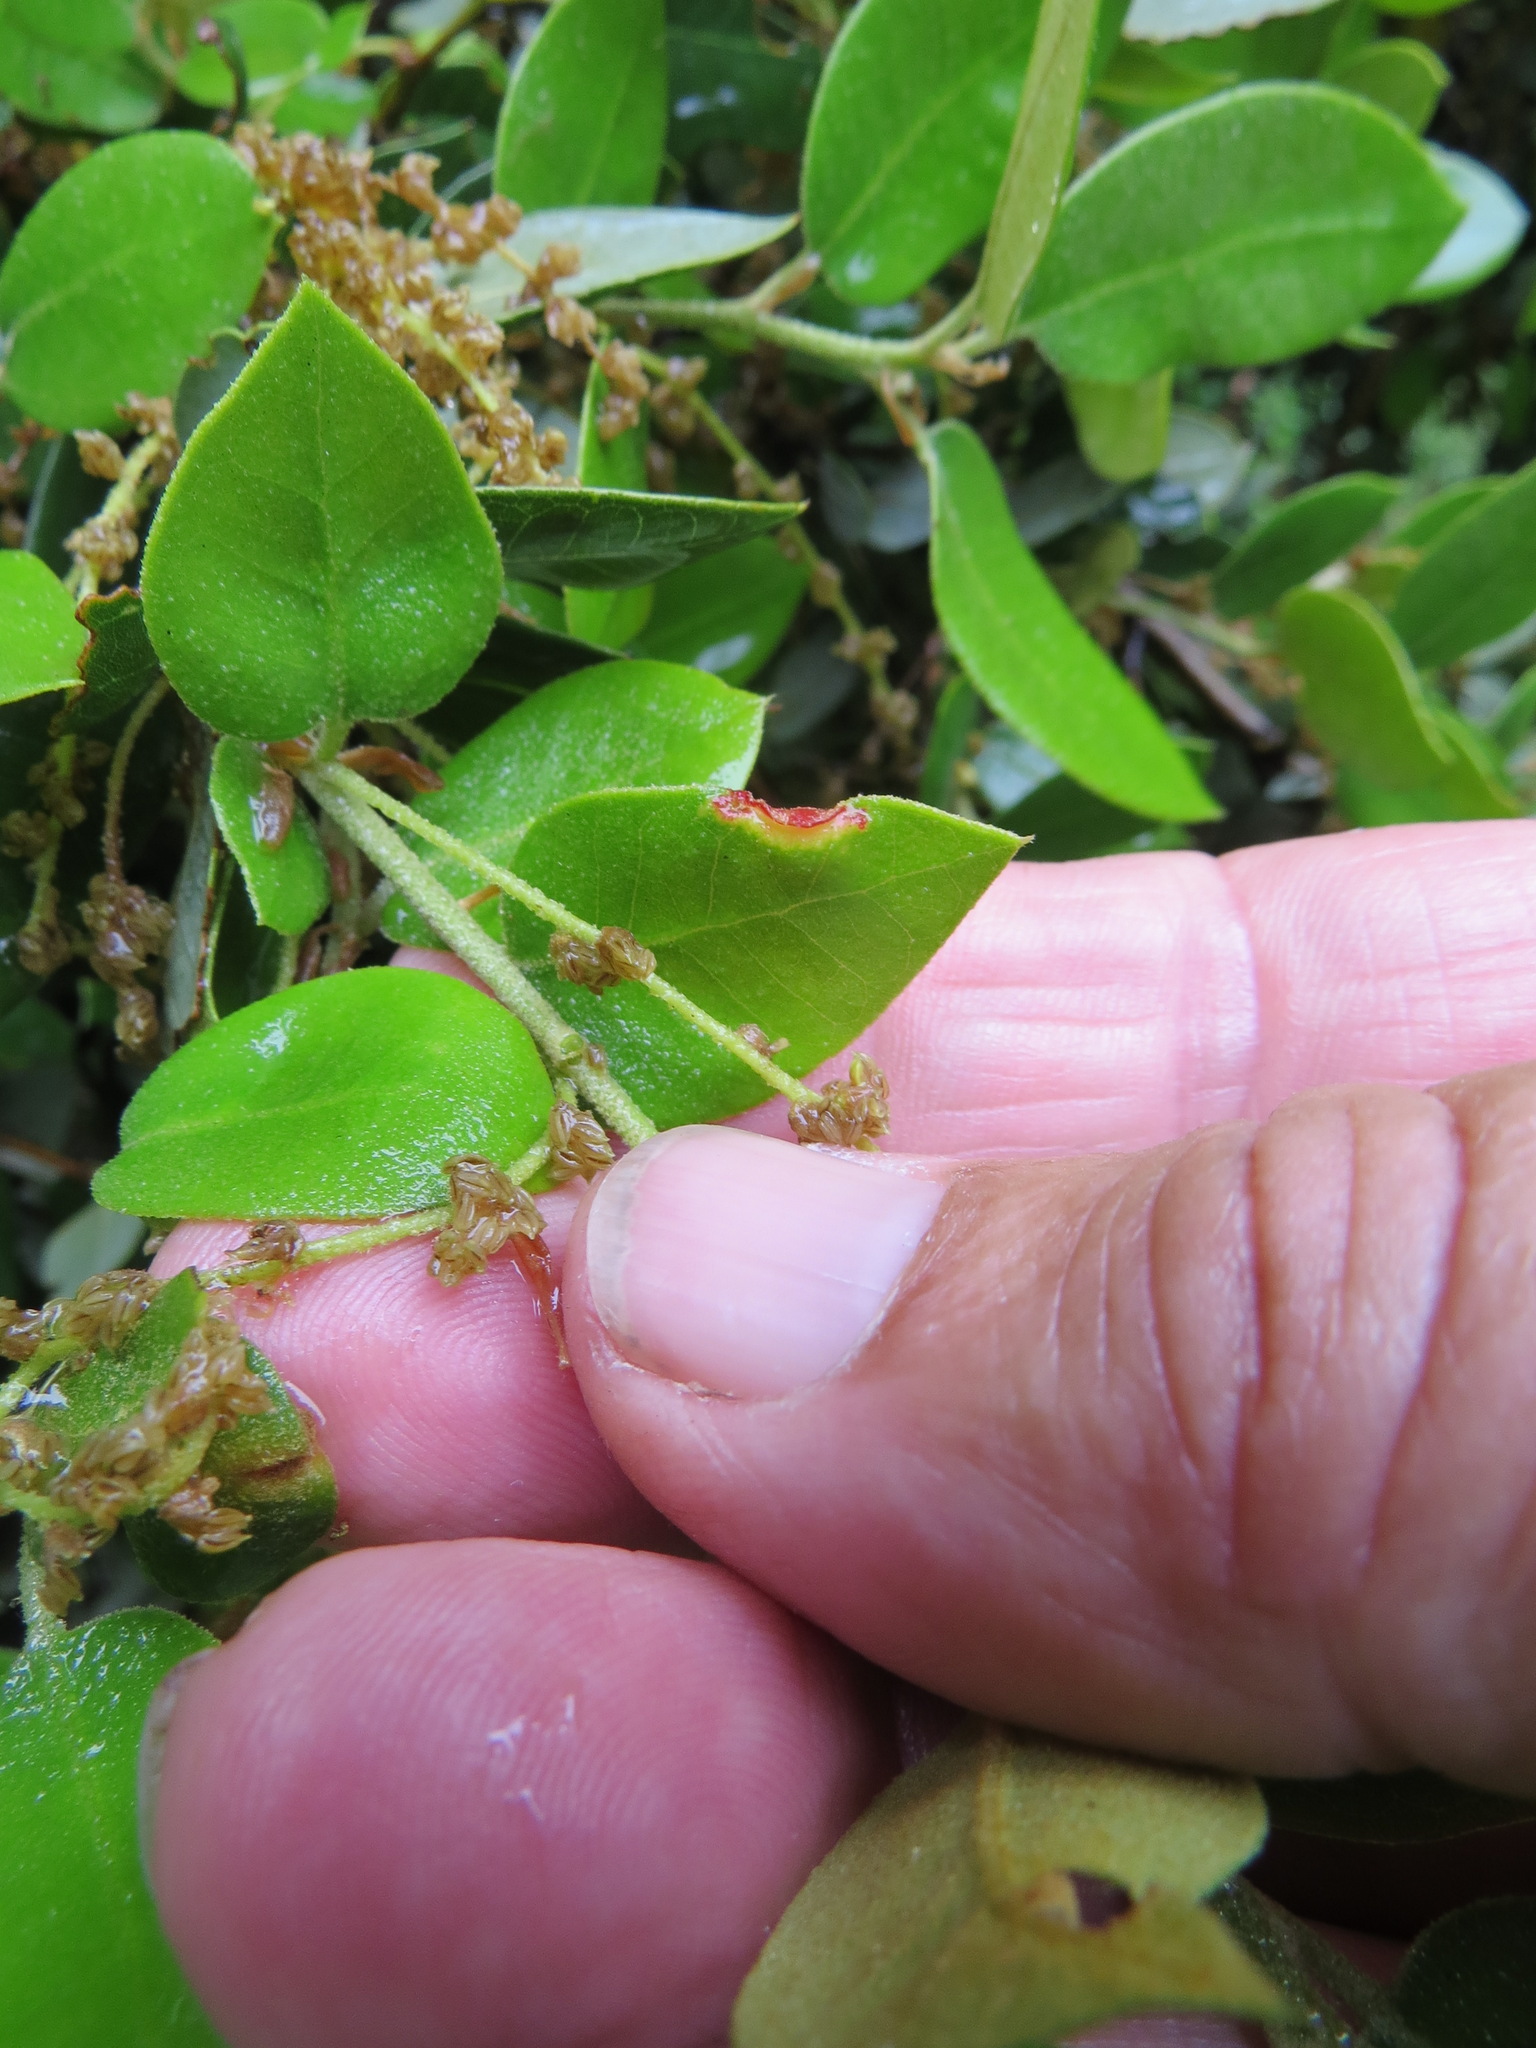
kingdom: Animalia
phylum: Arthropoda
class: Insecta
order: Diptera
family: Cecidomyiidae
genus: Dasineura
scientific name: Dasineura silvestrii
